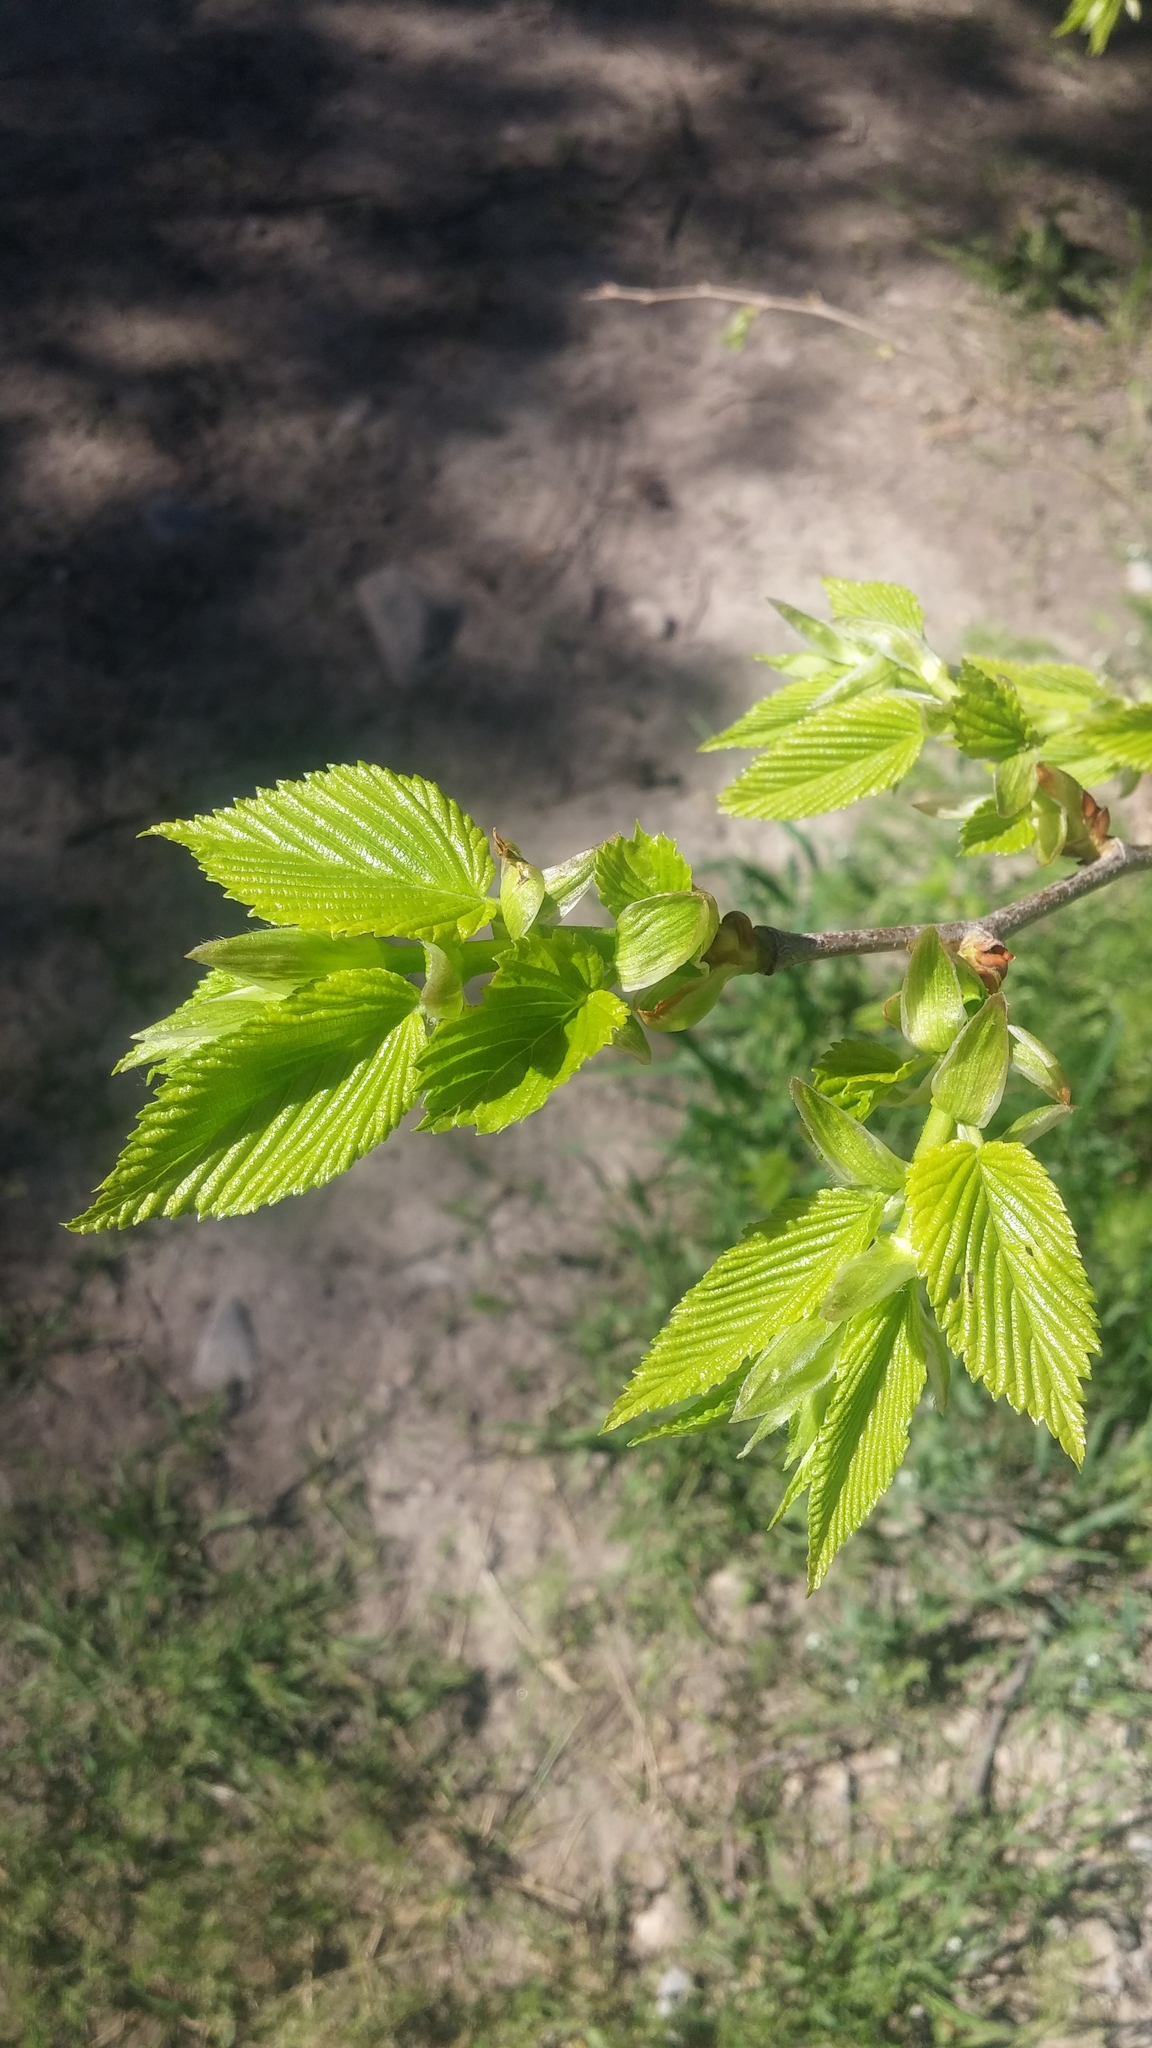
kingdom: Plantae
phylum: Tracheophyta
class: Magnoliopsida
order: Rosales
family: Ulmaceae
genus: Ulmus
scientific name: Ulmus americana
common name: American elm
